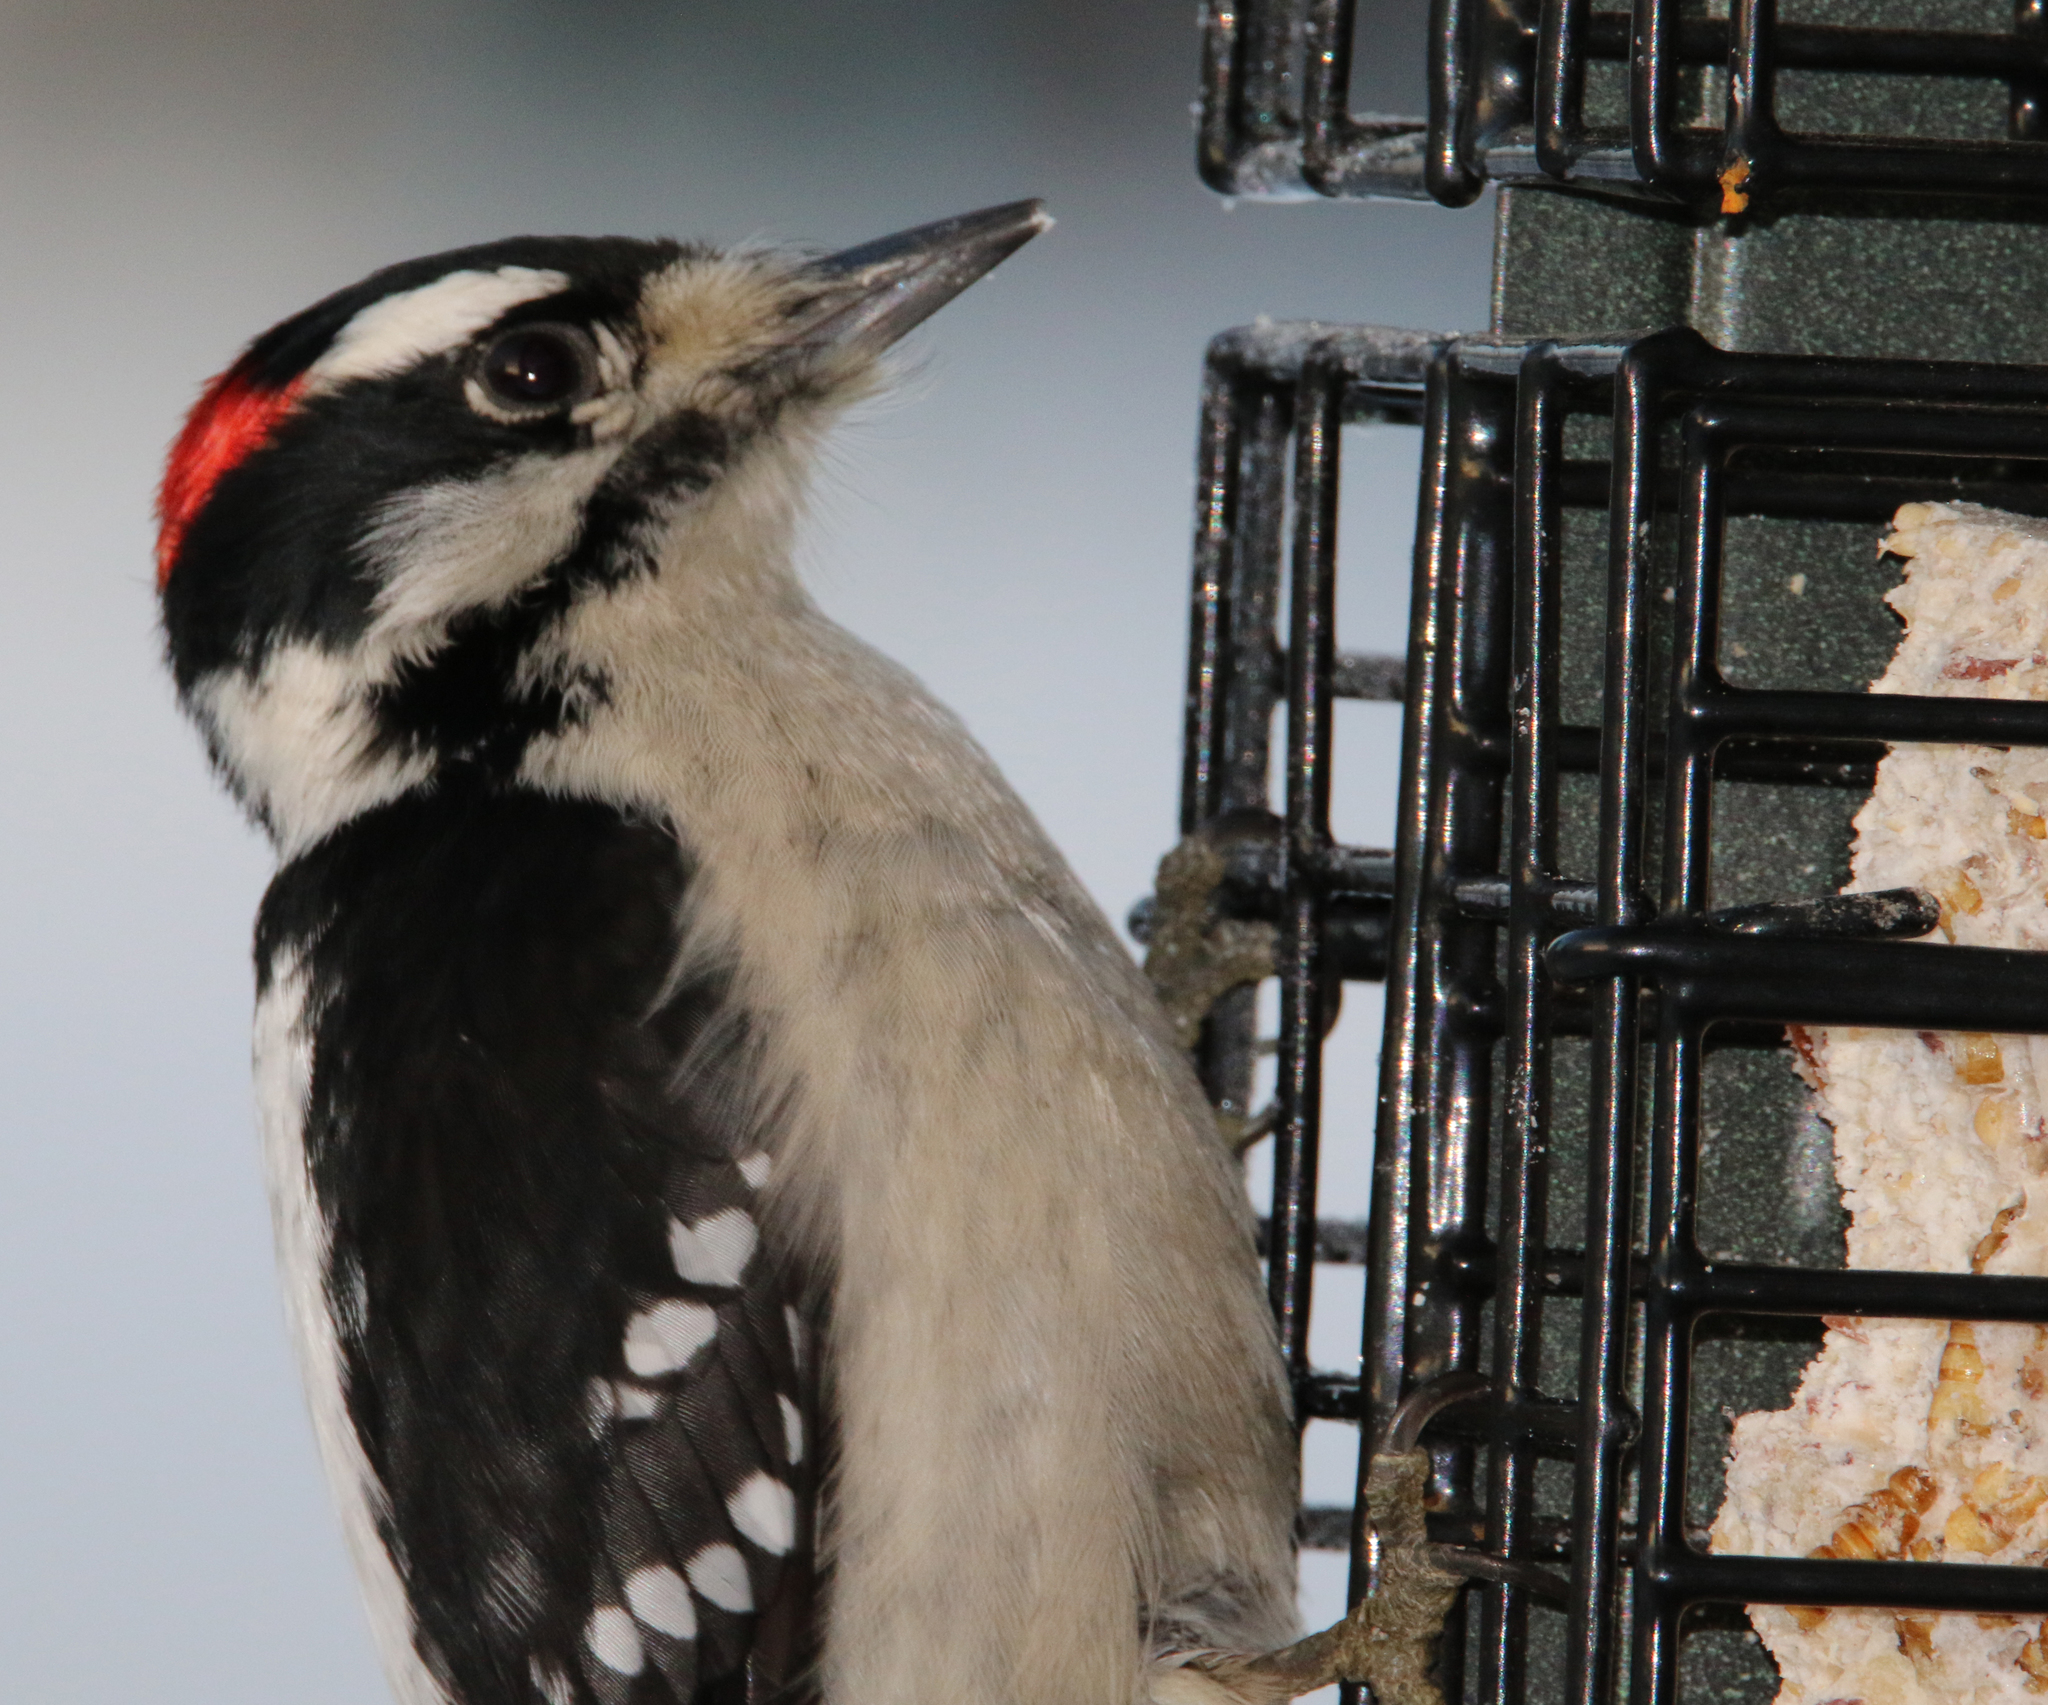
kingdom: Animalia
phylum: Chordata
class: Aves
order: Piciformes
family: Picidae
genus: Dryobates
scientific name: Dryobates pubescens
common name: Downy woodpecker
